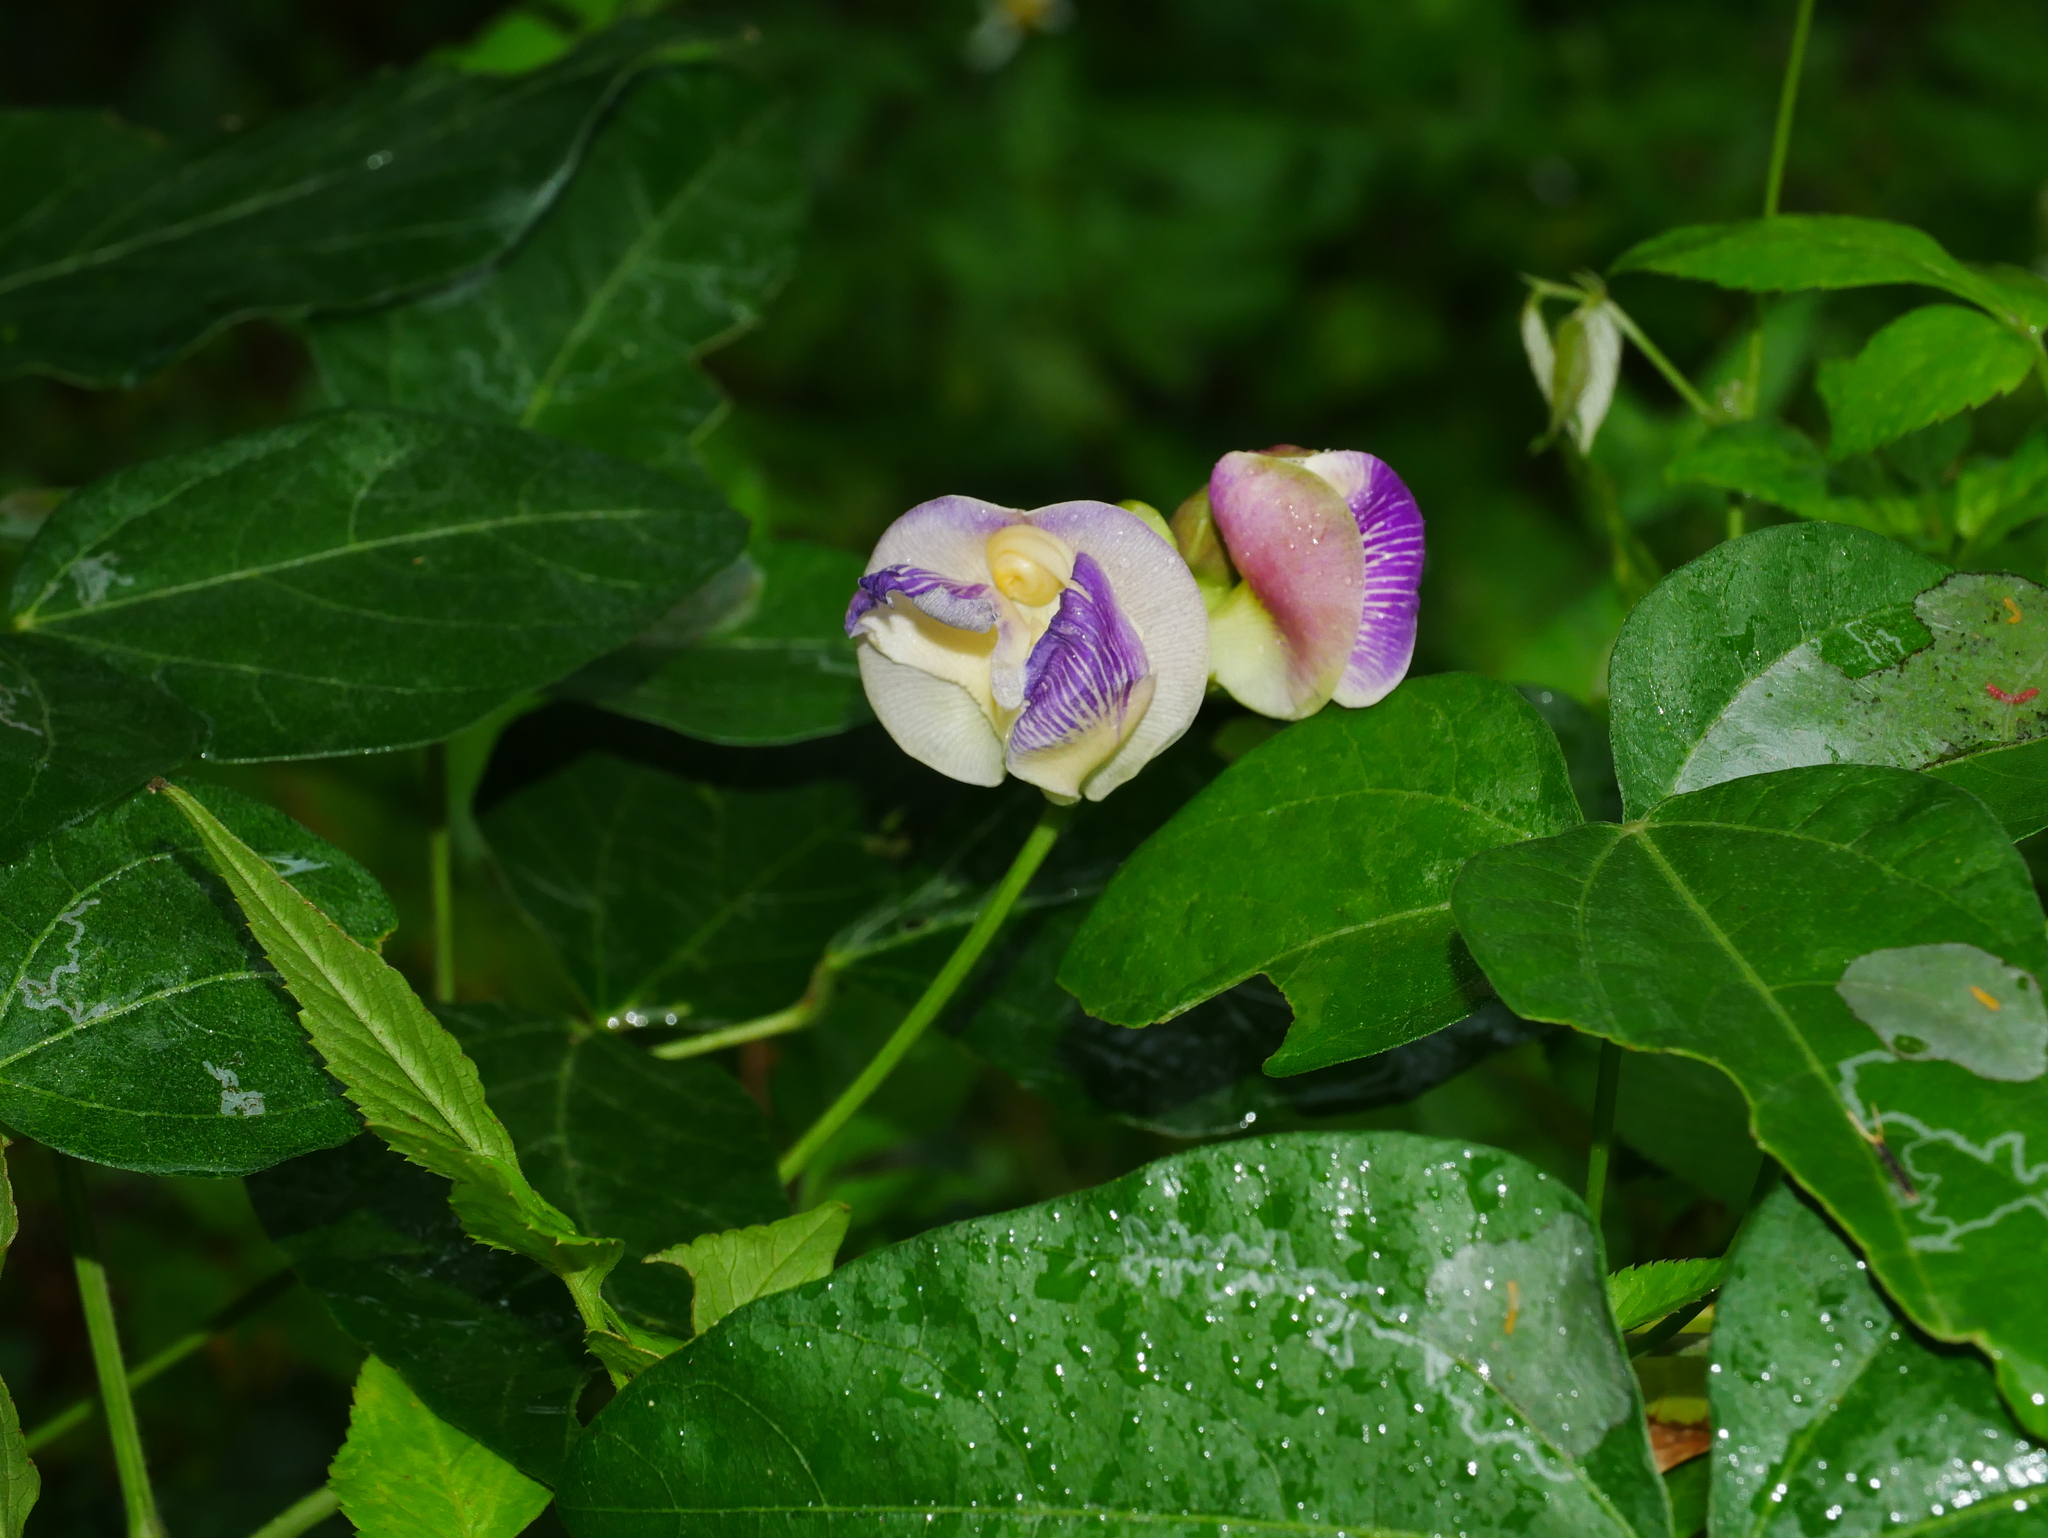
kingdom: Plantae
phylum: Tracheophyta
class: Magnoliopsida
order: Fabales
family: Fabaceae
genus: Leptospron
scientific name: Leptospron adenanthum
